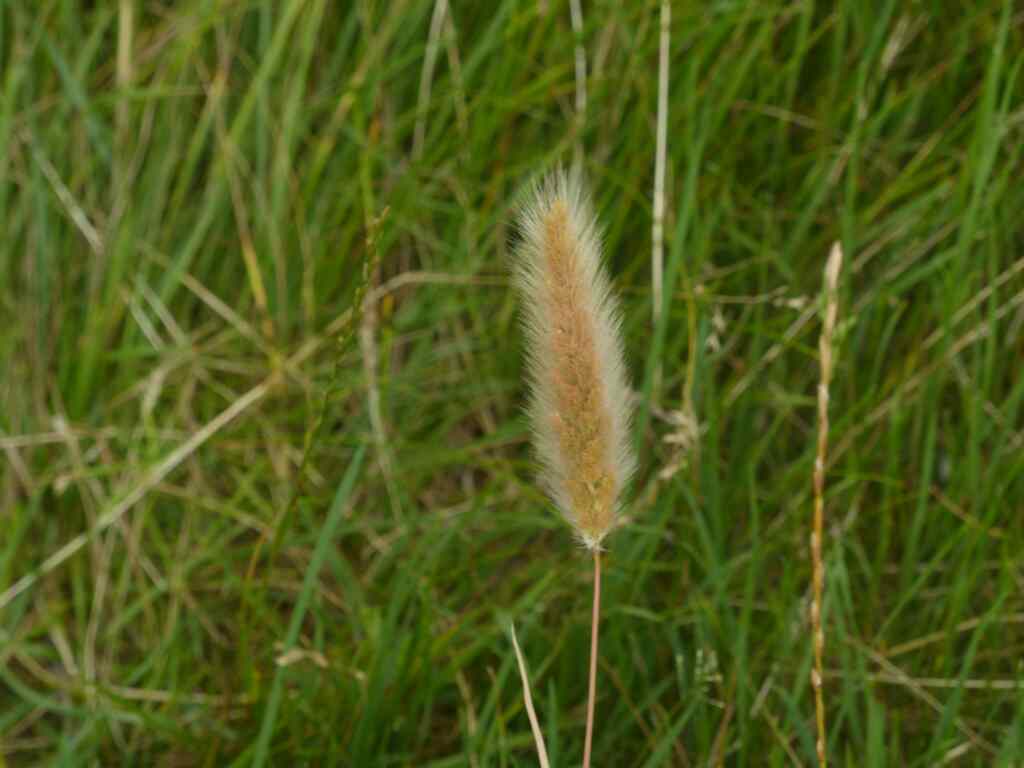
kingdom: Plantae
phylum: Tracheophyta
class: Liliopsida
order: Poales
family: Poaceae
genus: Polypogon
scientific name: Polypogon monspeliensis
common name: Annual rabbitsfoot grass
